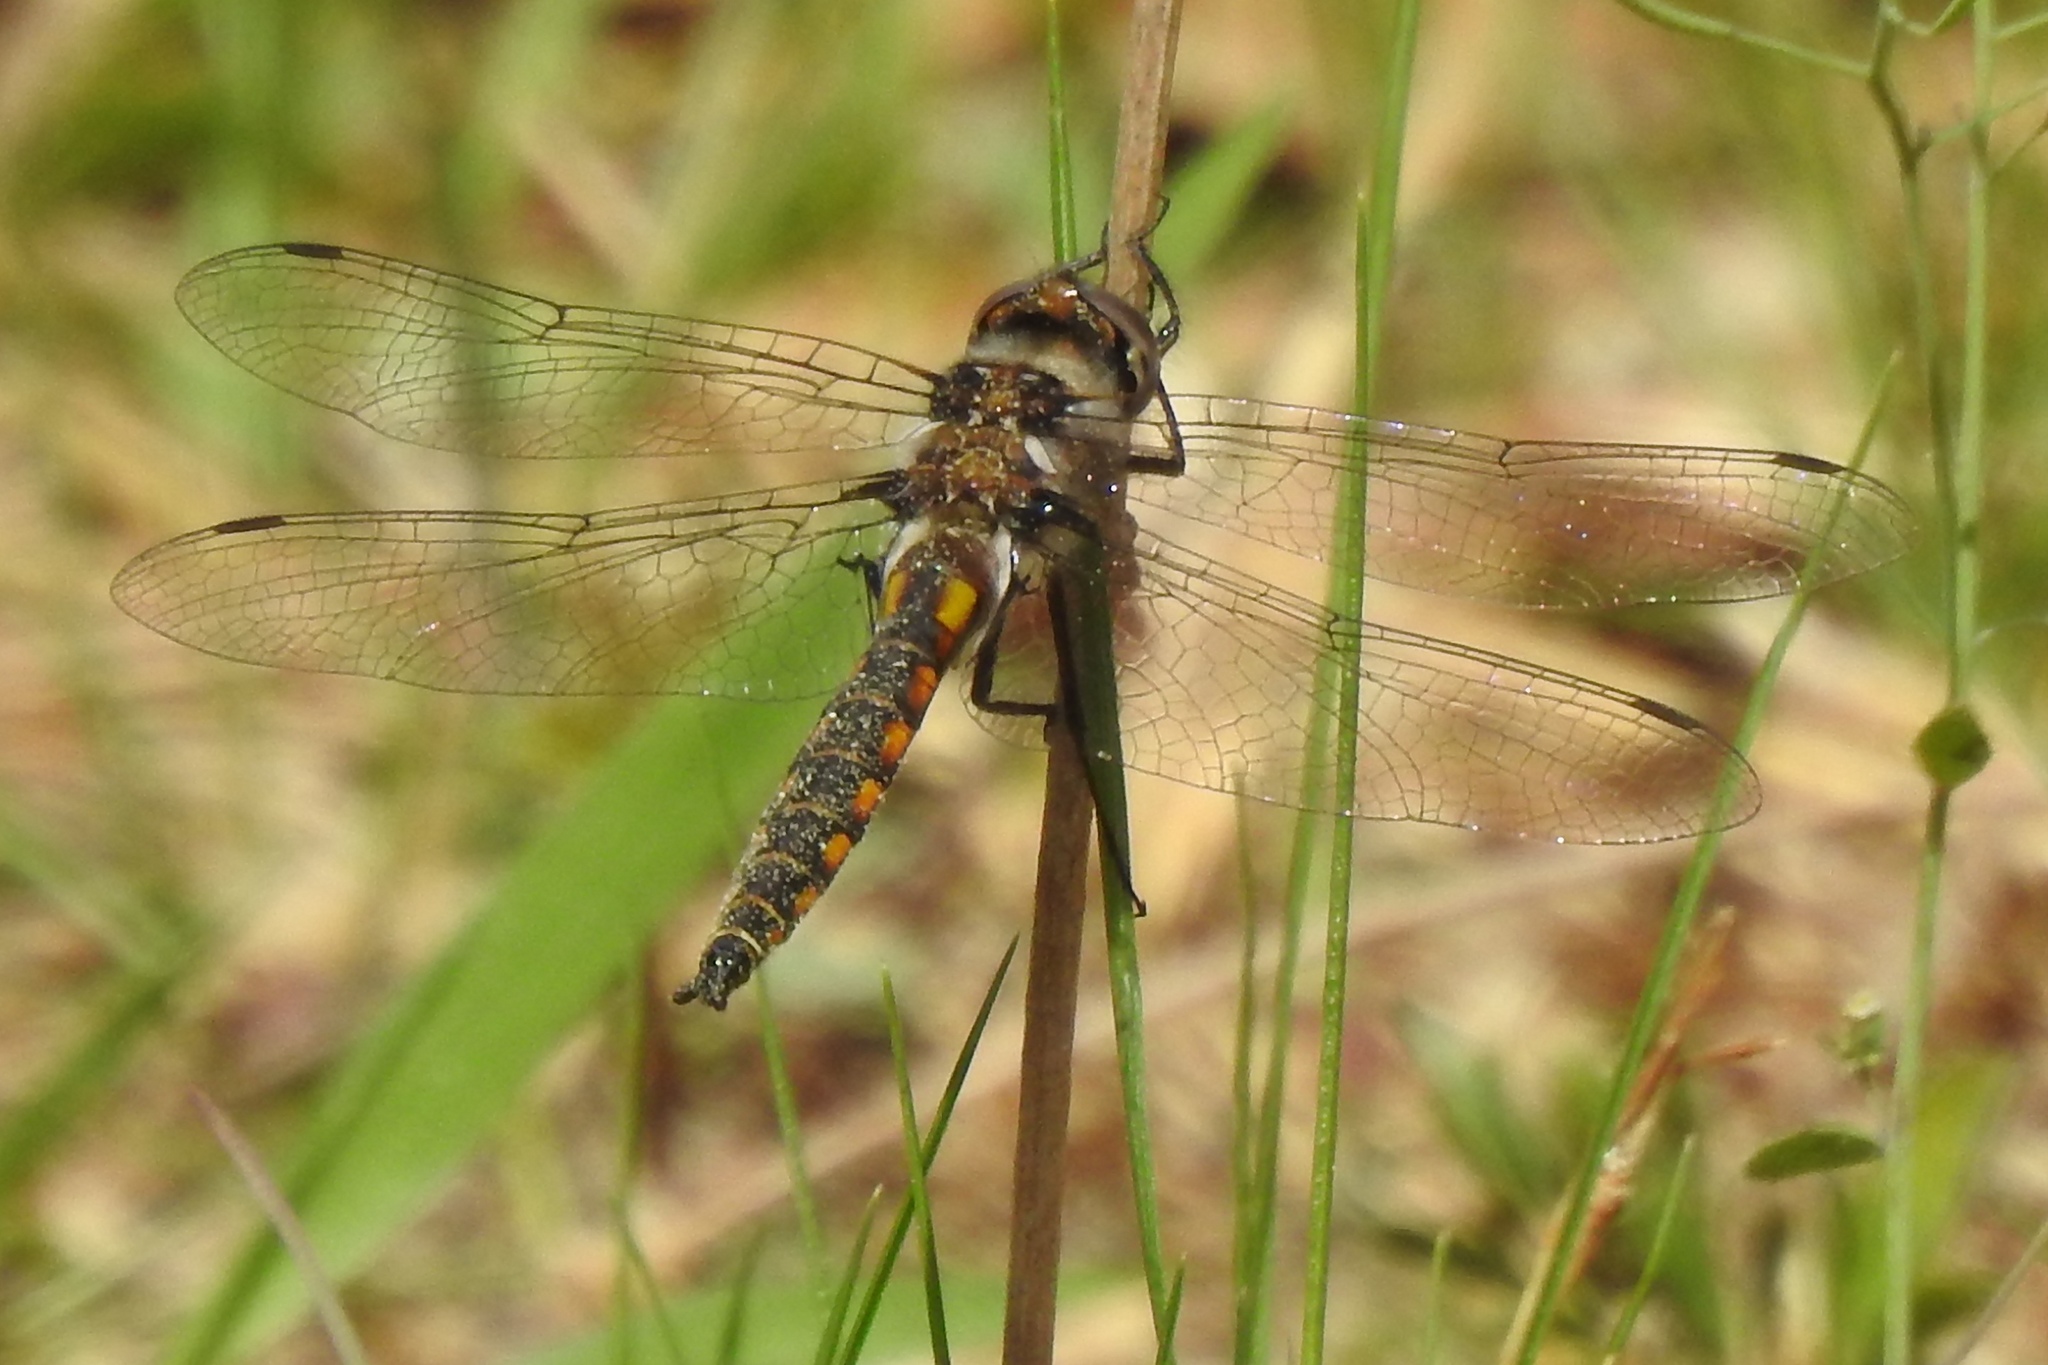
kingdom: Animalia
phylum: Arthropoda
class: Insecta
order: Odonata
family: Corduliidae
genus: Epitheca
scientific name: Epitheca cynosura
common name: Common baskettail
